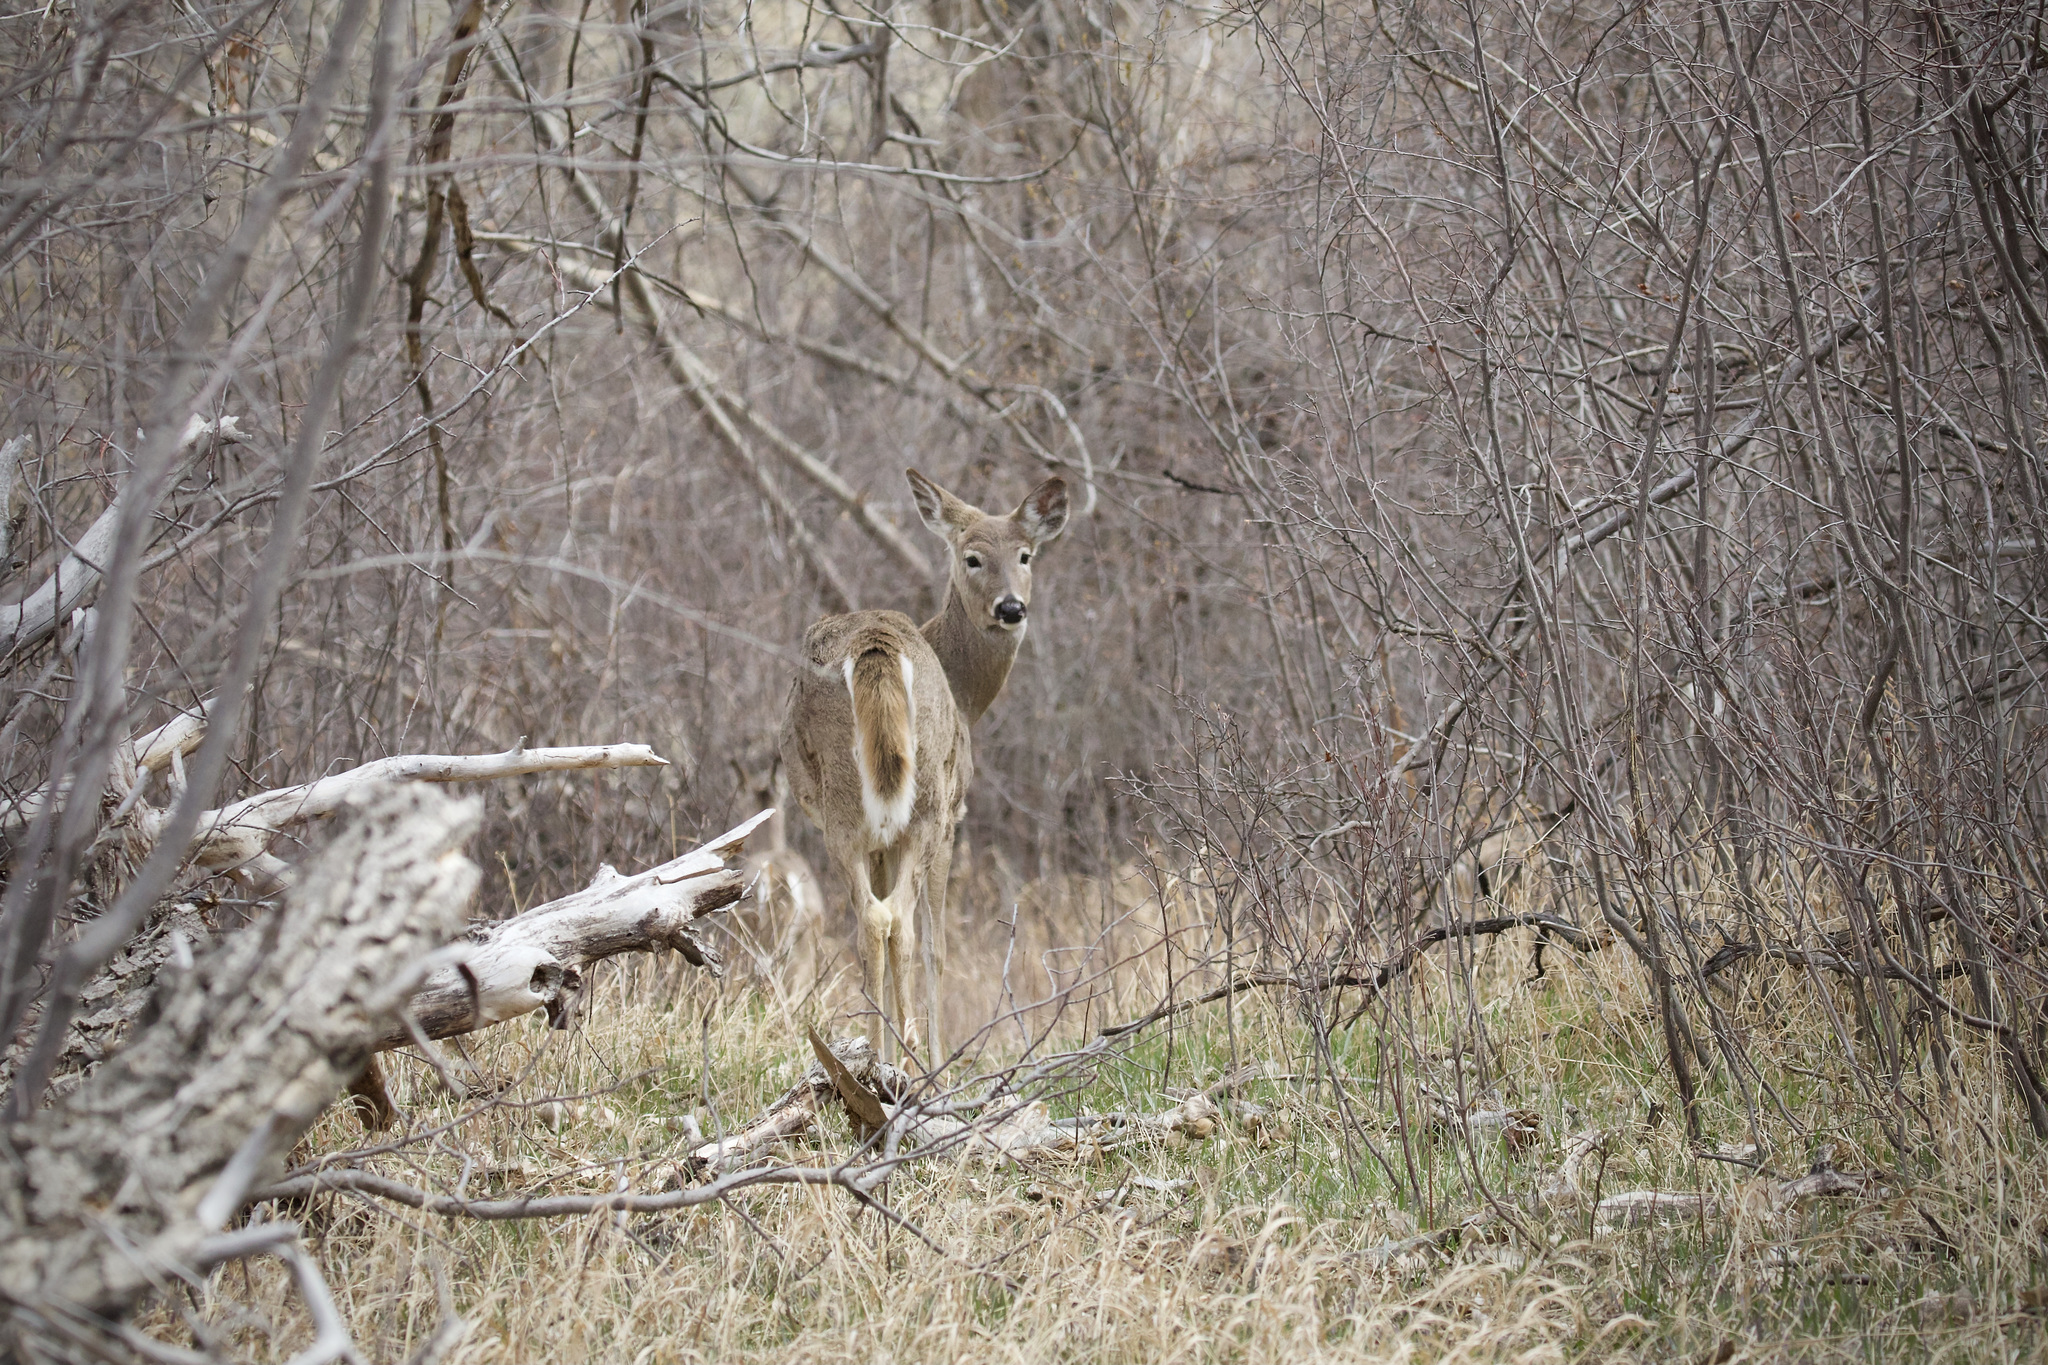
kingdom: Animalia
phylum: Chordata
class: Mammalia
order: Artiodactyla
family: Cervidae
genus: Odocoileus
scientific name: Odocoileus virginianus
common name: White-tailed deer
